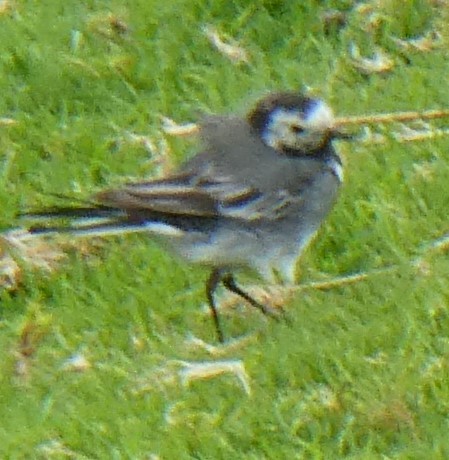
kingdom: Animalia
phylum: Chordata
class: Aves
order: Passeriformes
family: Motacillidae
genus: Motacilla
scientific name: Motacilla alba
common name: White wagtail
